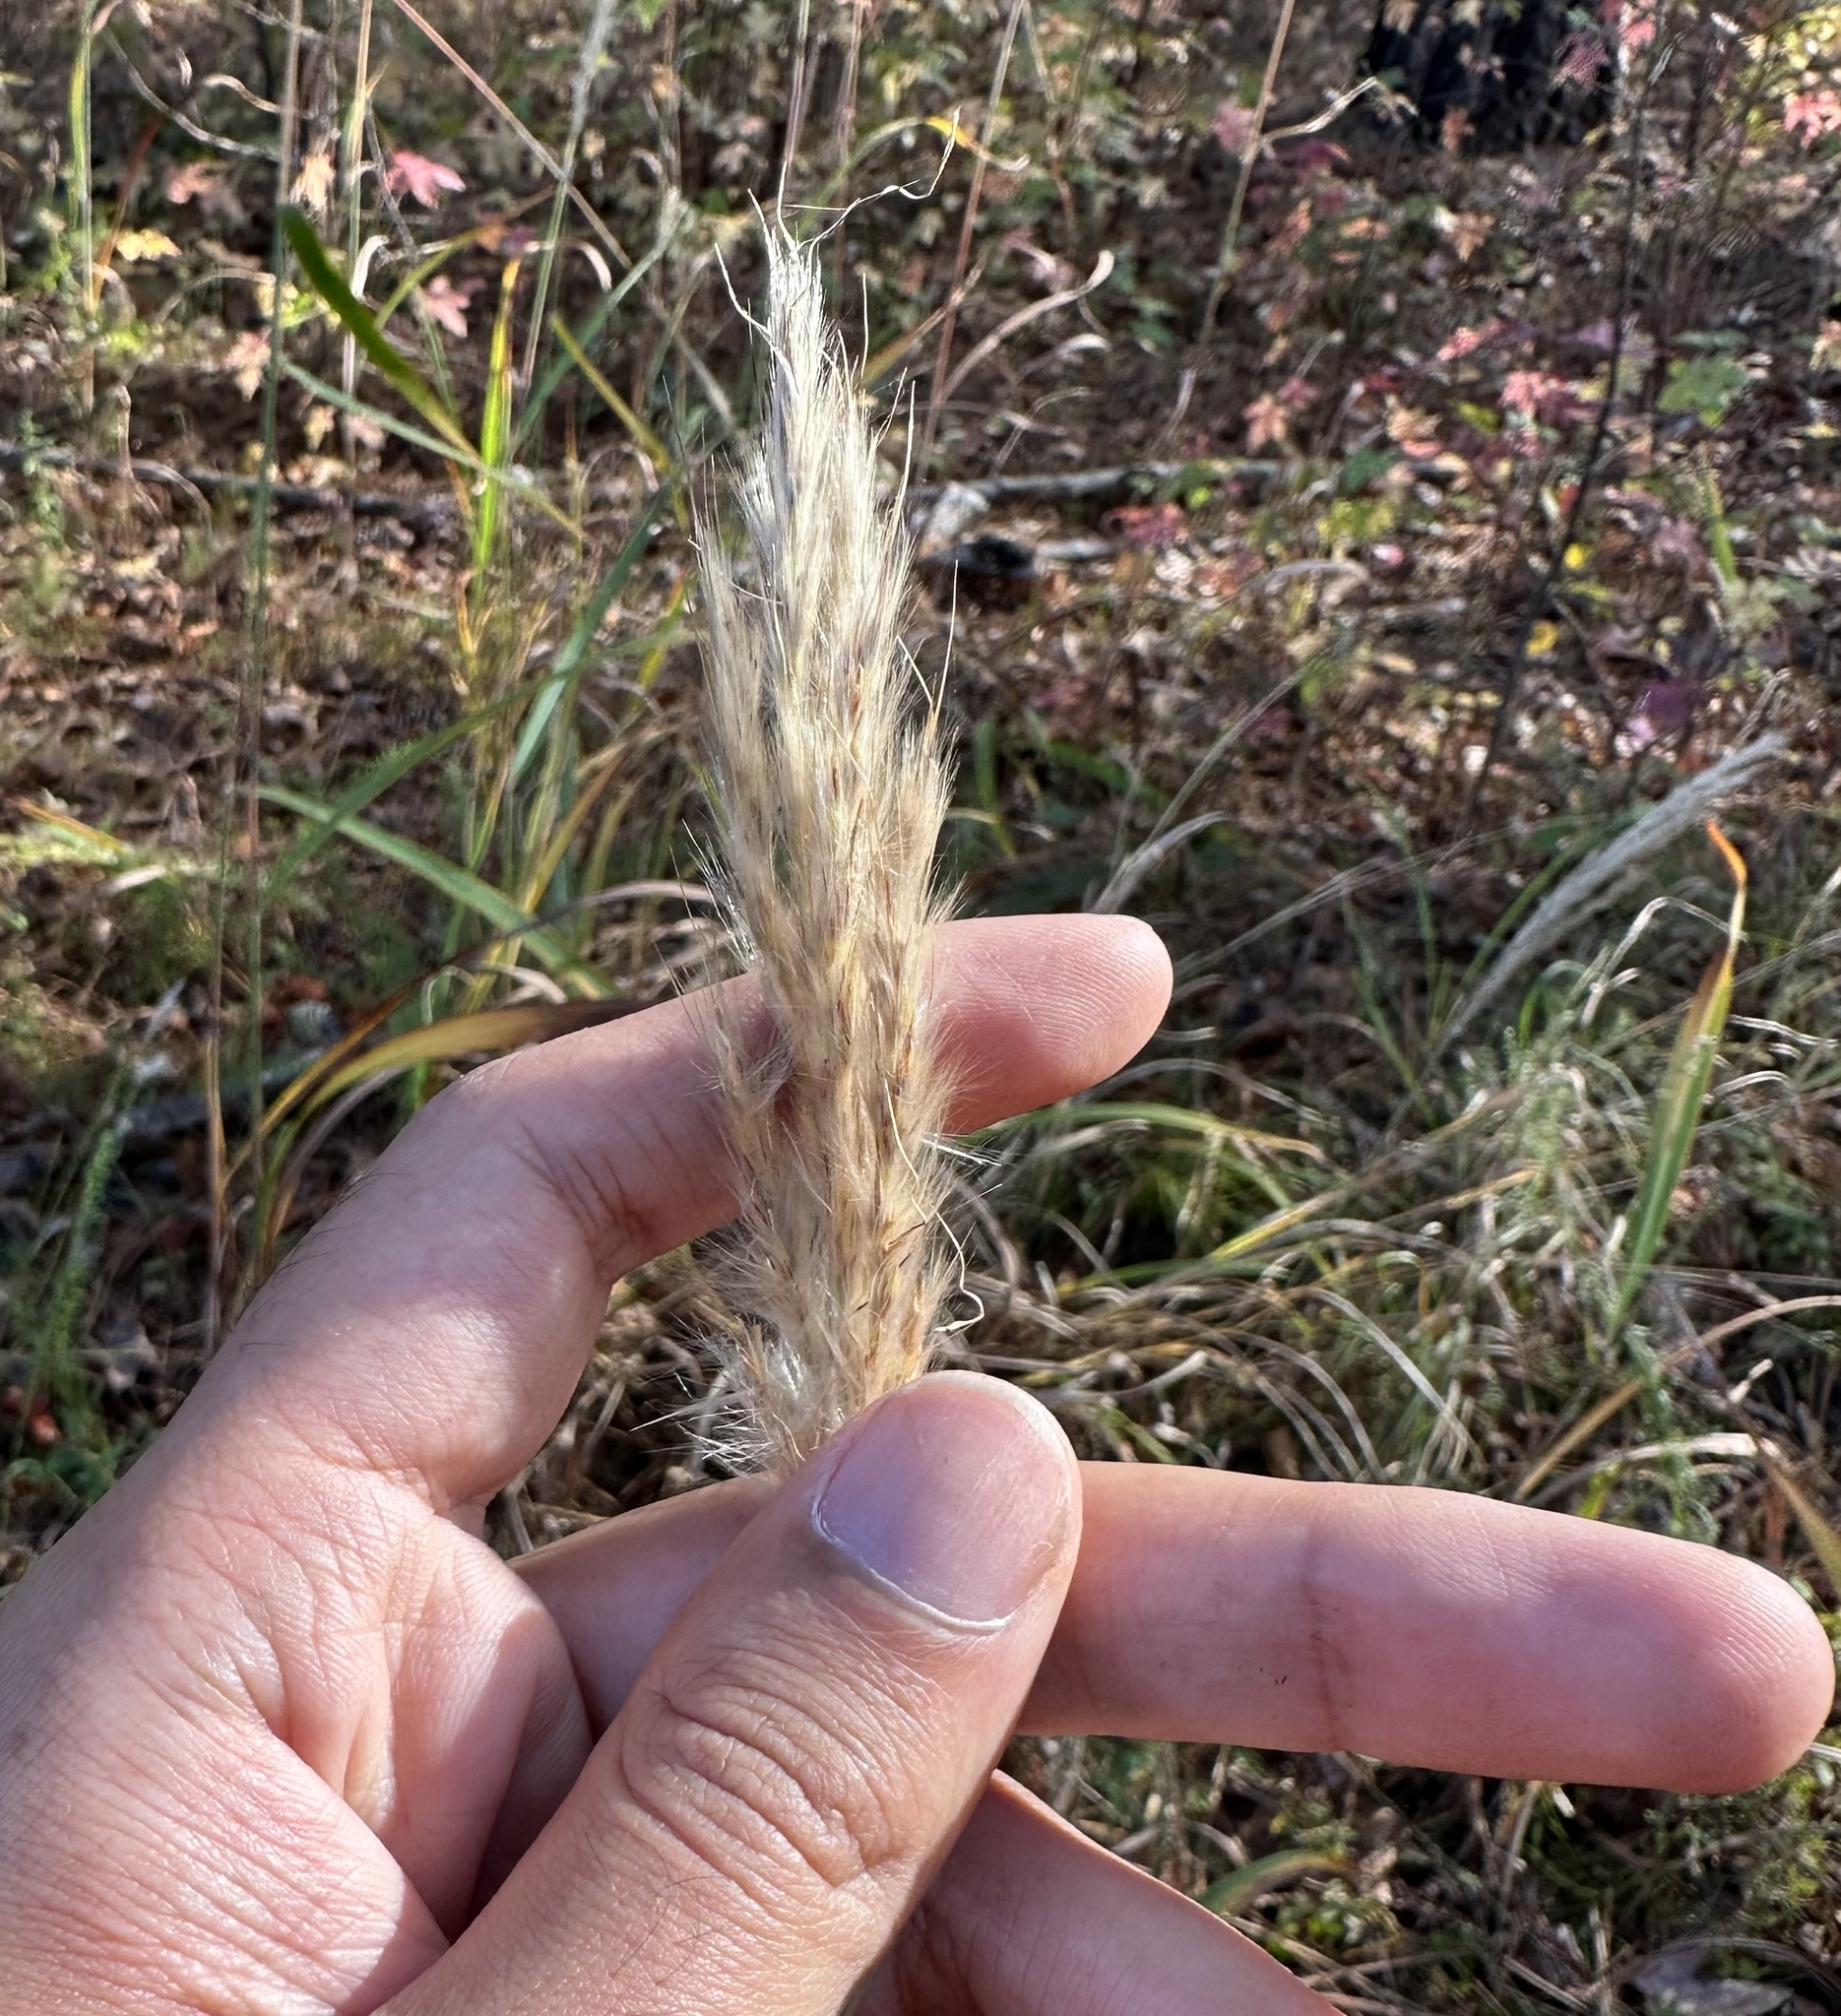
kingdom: Plantae
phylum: Tracheophyta
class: Liliopsida
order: Poales
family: Poaceae
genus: Erianthus
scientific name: Erianthus alopecuroides
